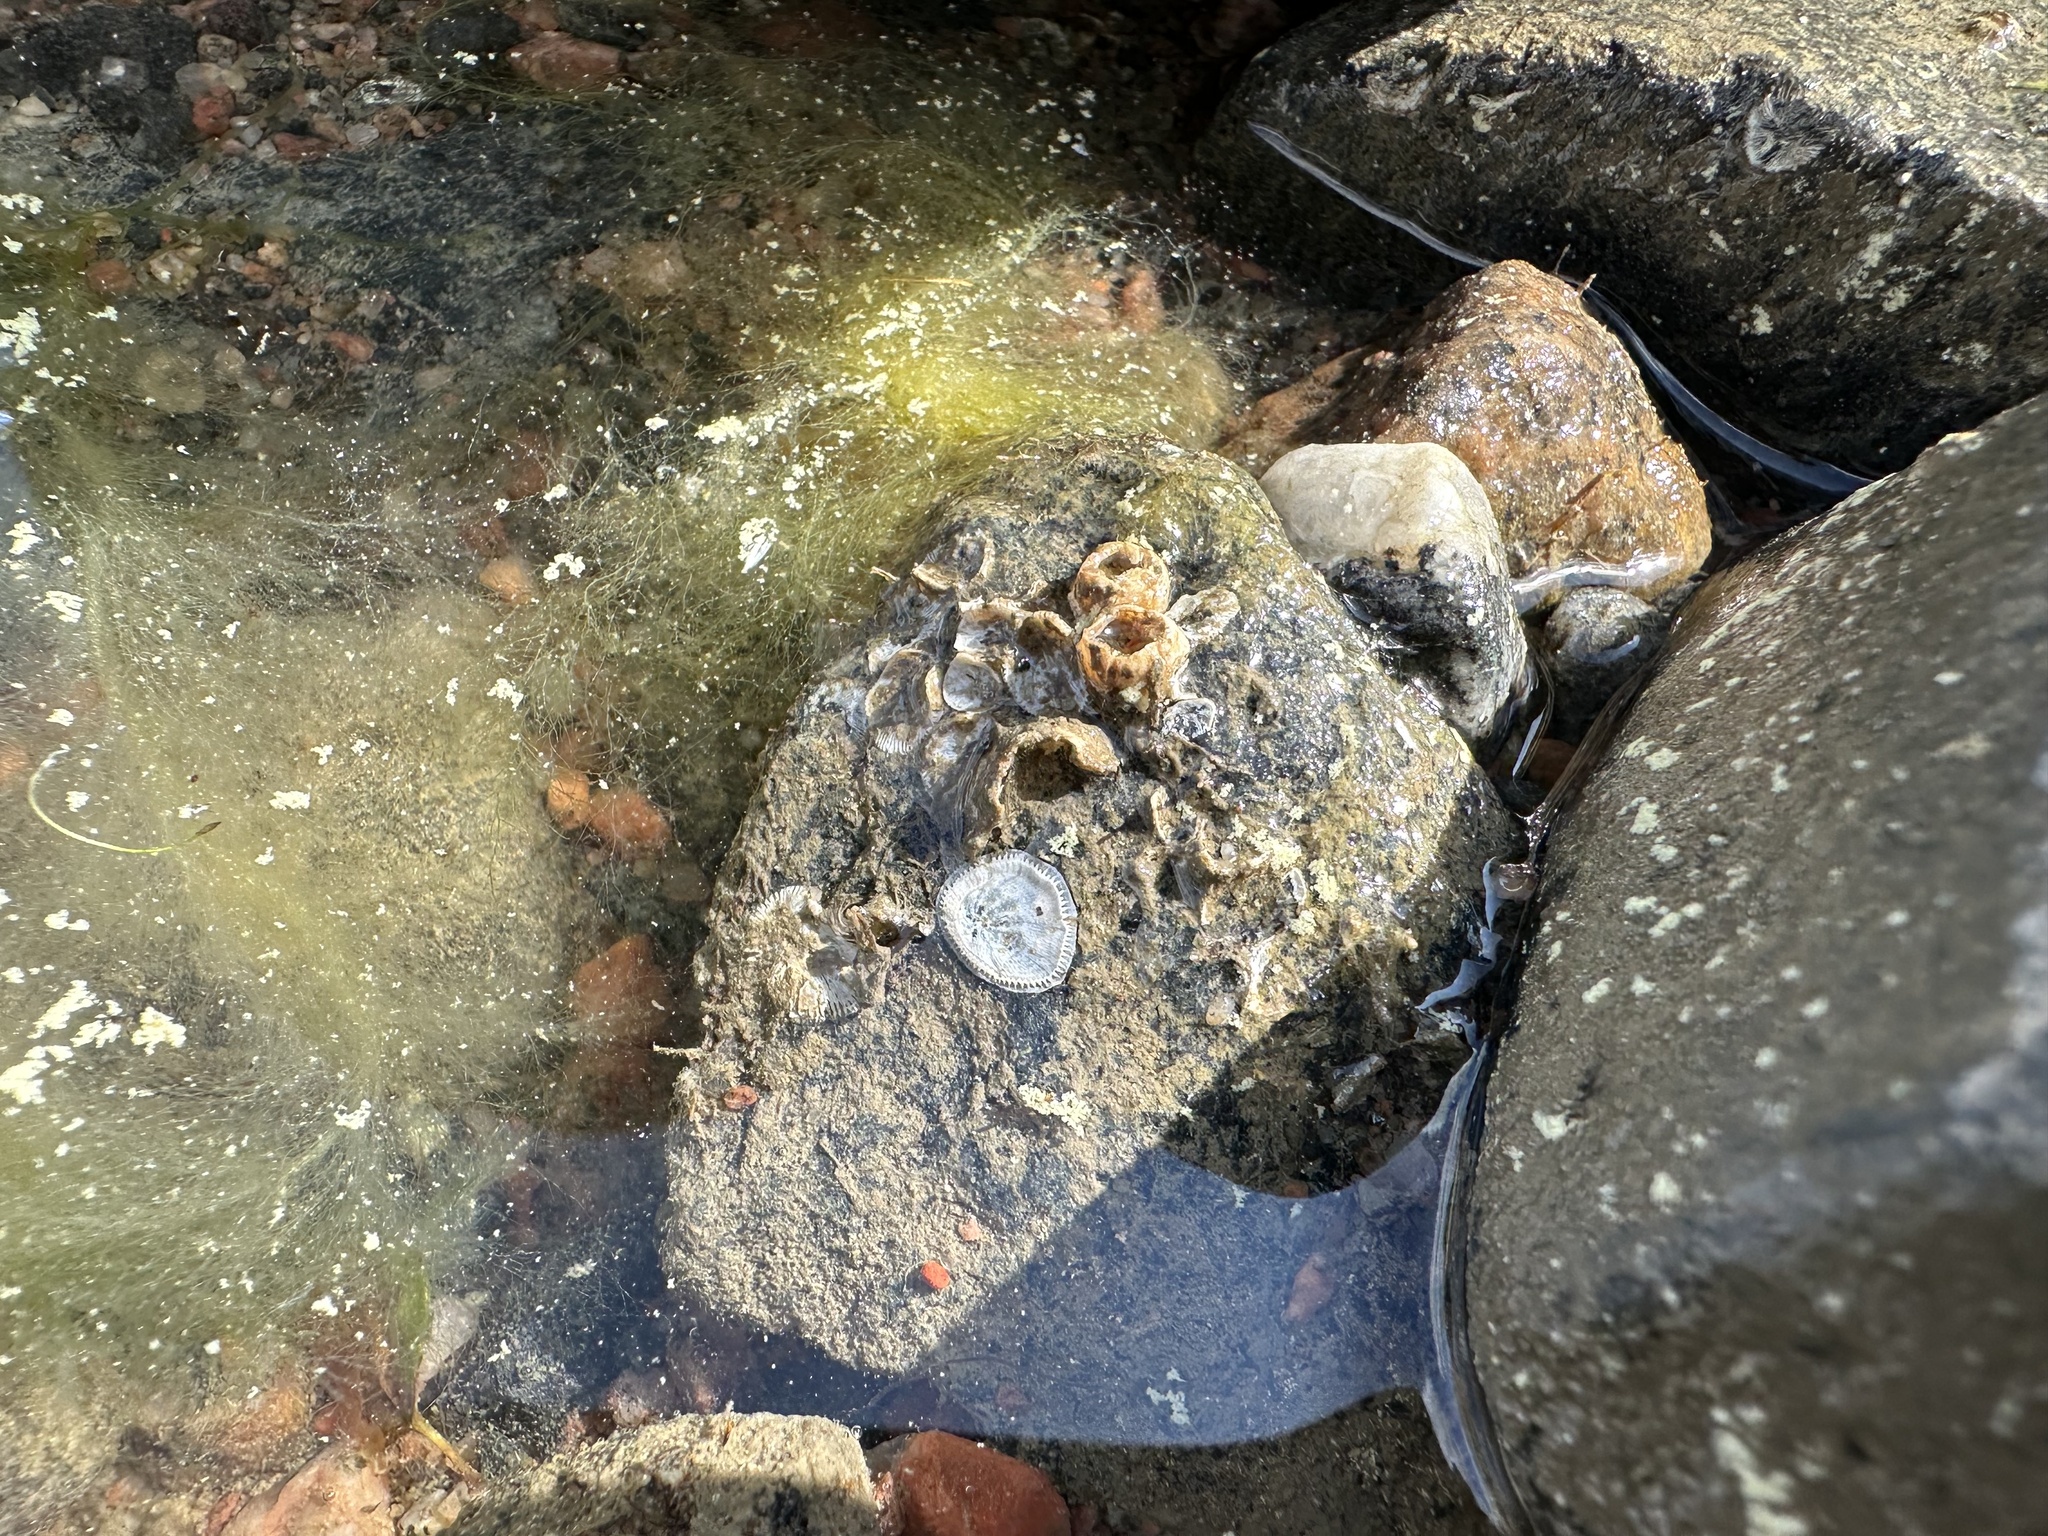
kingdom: Animalia
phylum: Arthropoda
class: Maxillopoda
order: Sessilia
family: Balanidae
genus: Amphibalanus
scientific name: Amphibalanus improvisus
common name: Bay barnacle
